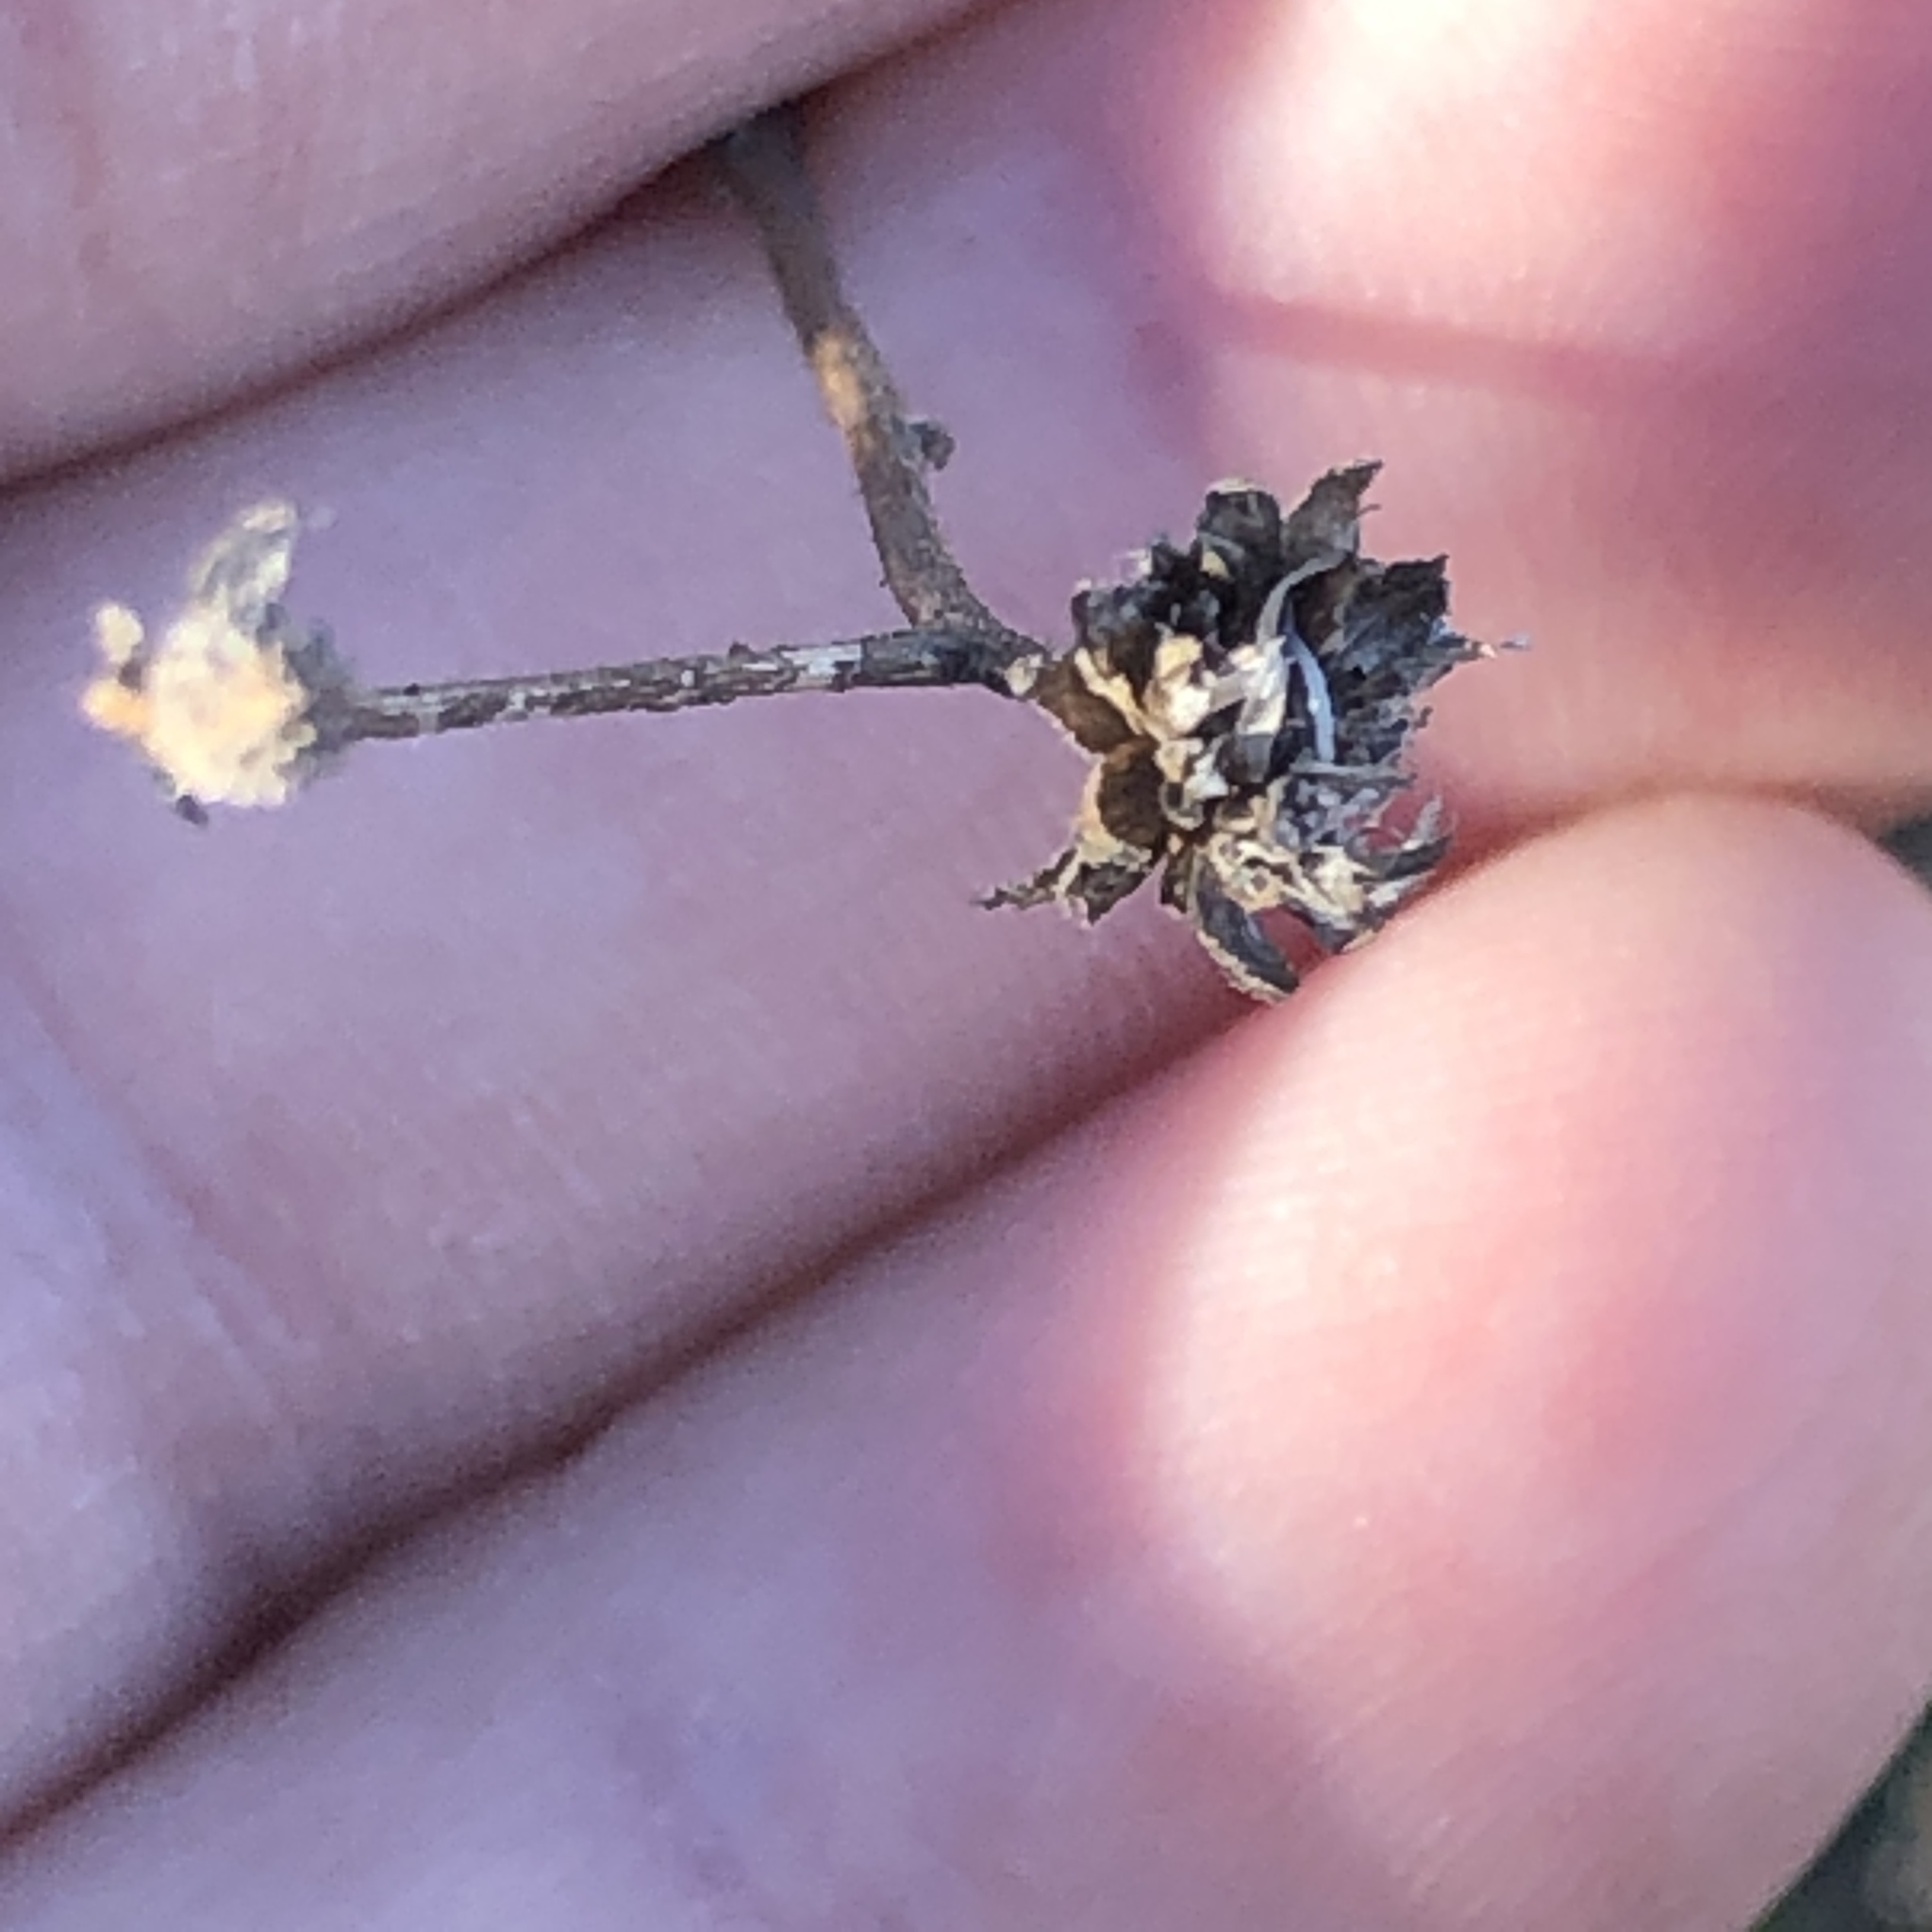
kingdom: Plantae
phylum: Tracheophyta
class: Magnoliopsida
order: Asterales
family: Asteraceae
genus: Bahiopsis
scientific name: Bahiopsis laciniata
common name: San diego county viguiera
